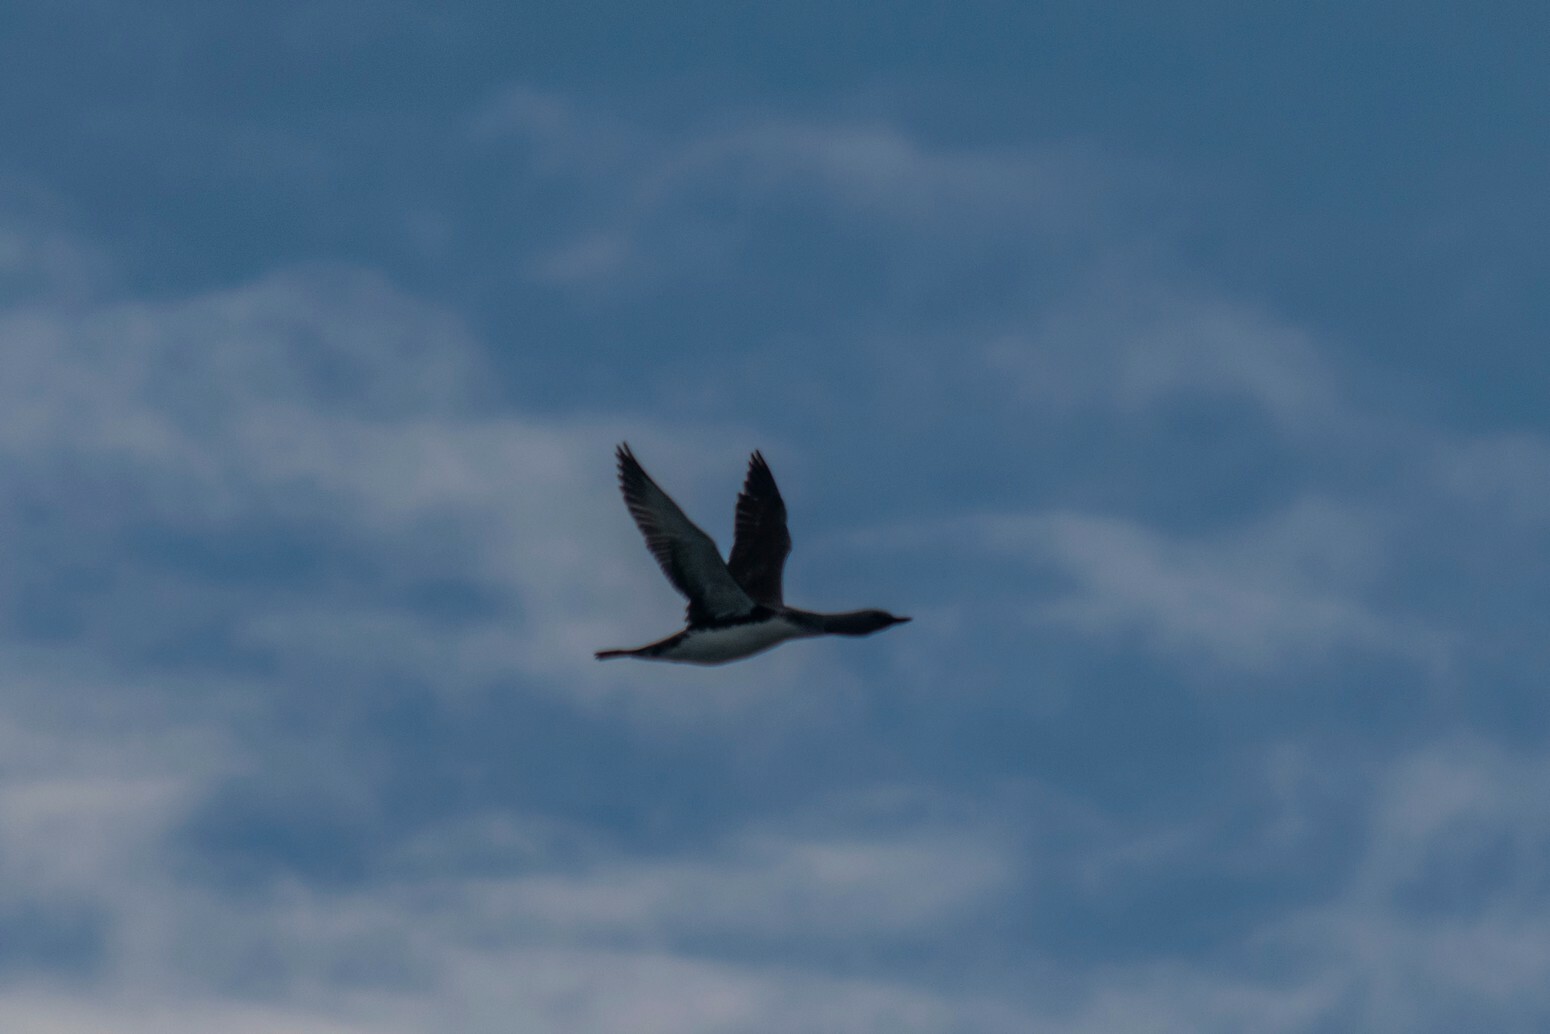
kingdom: Animalia
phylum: Chordata
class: Aves
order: Gaviiformes
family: Gaviidae
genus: Gavia
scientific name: Gavia stellata
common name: Red-throated loon
